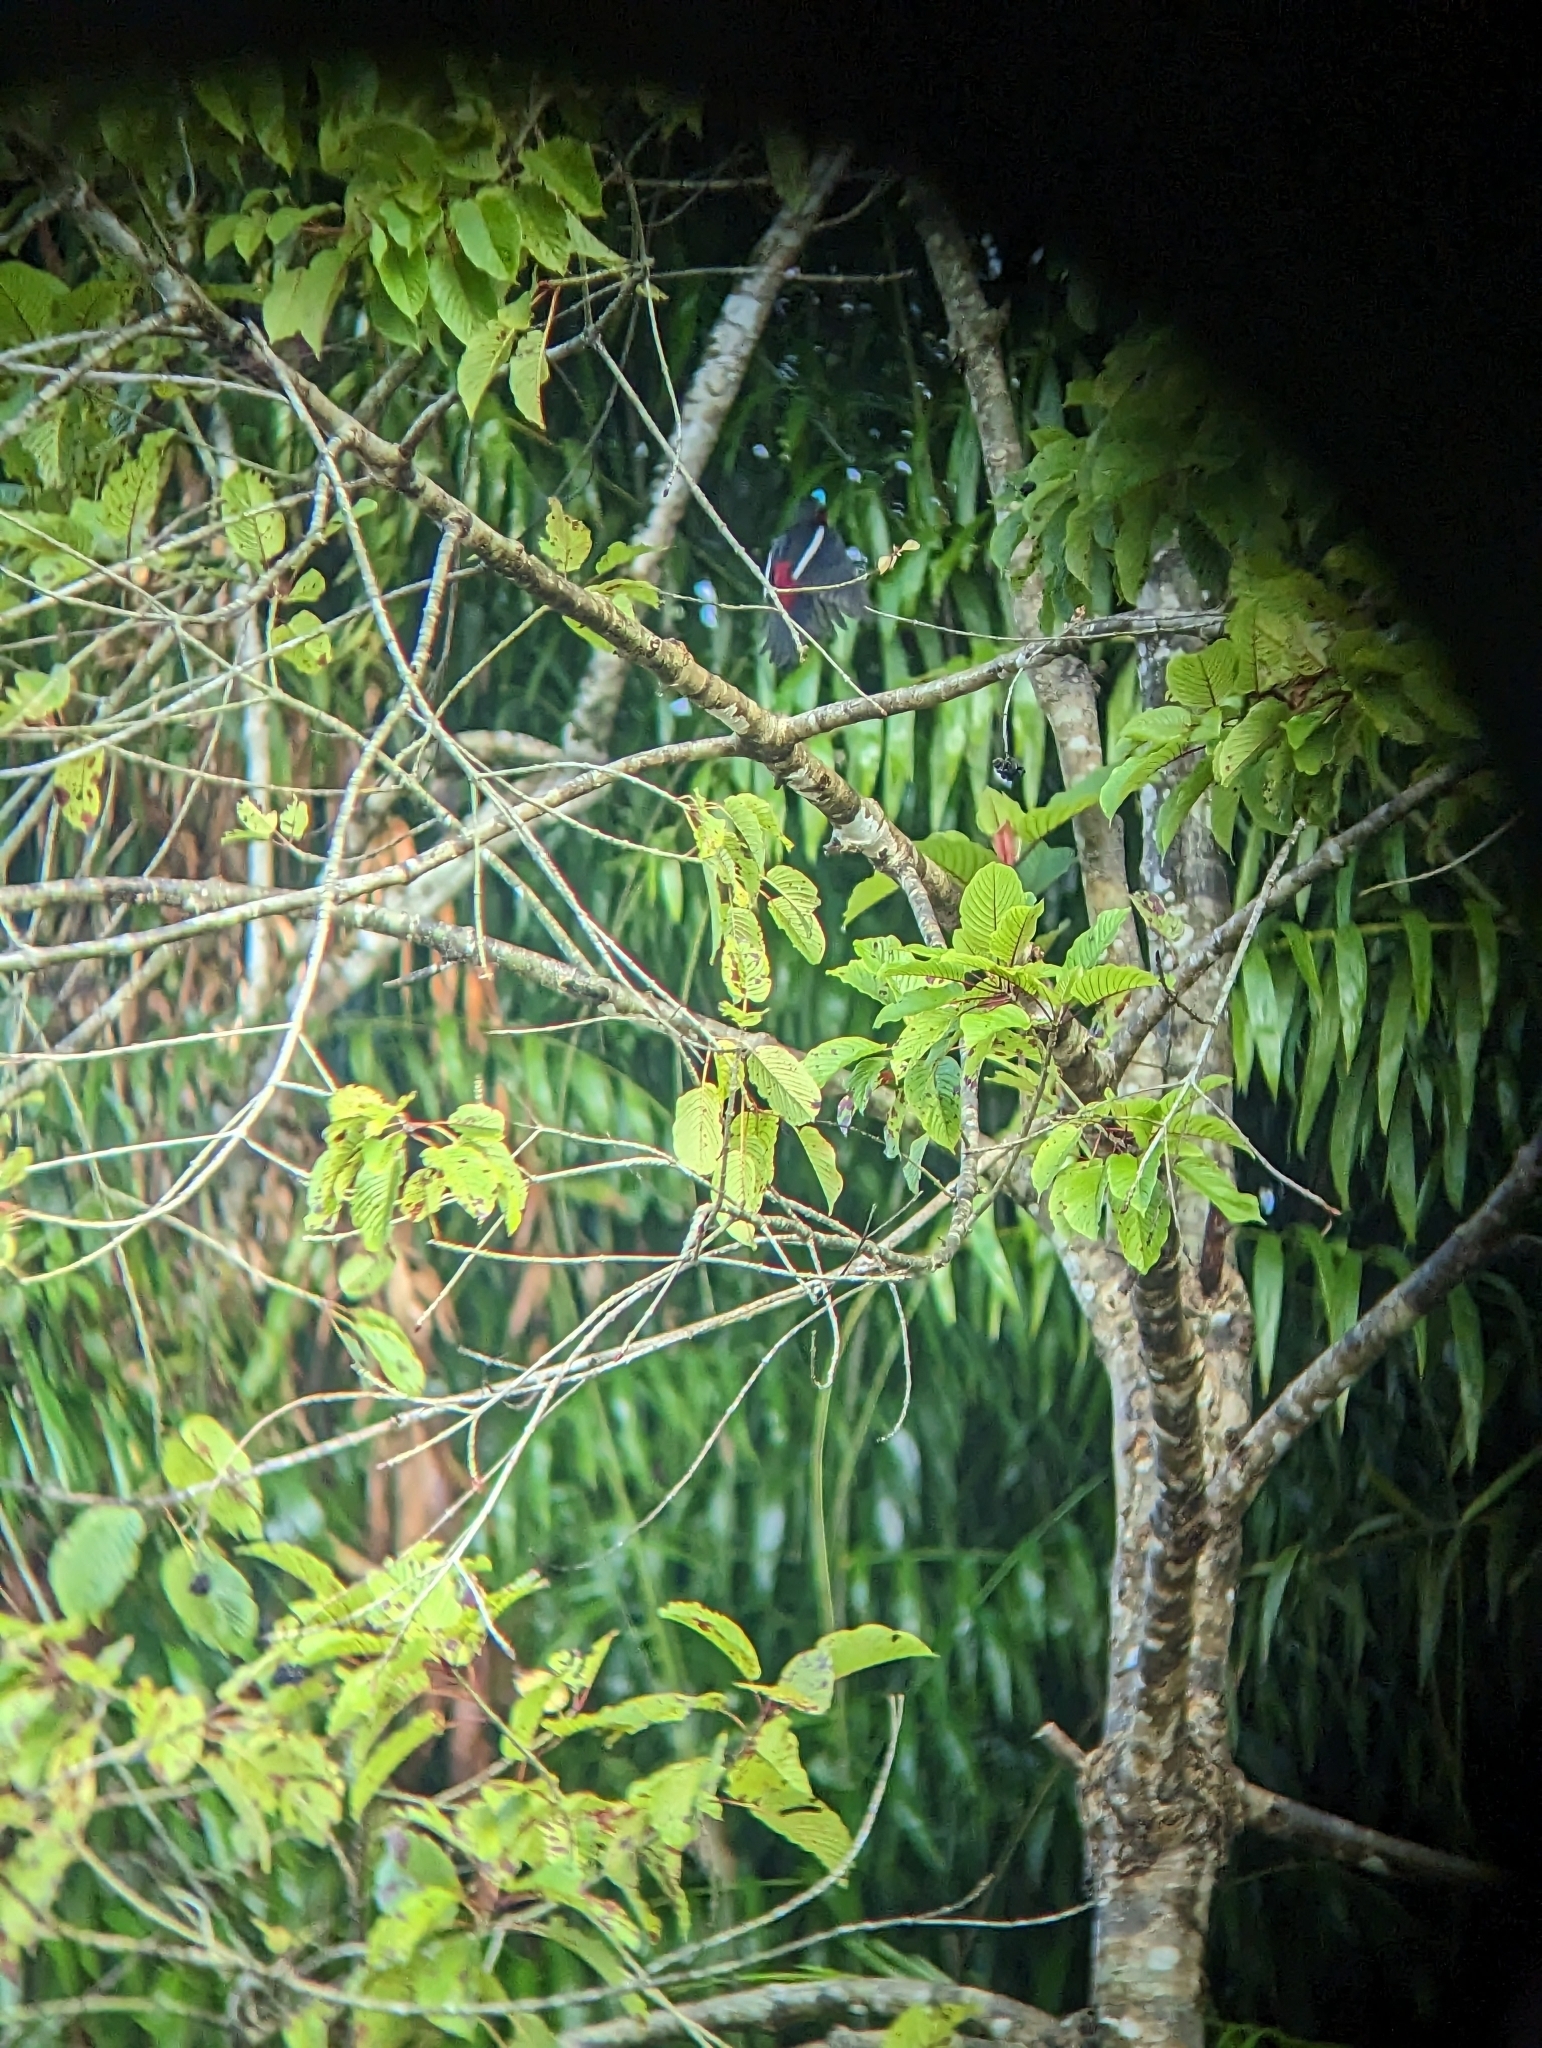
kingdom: Animalia
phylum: Chordata
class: Aves
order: Passeriformes
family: Eurylaimidae
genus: Cymbirhynchus
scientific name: Cymbirhynchus macrorhynchos
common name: Black-and-red broadbill
